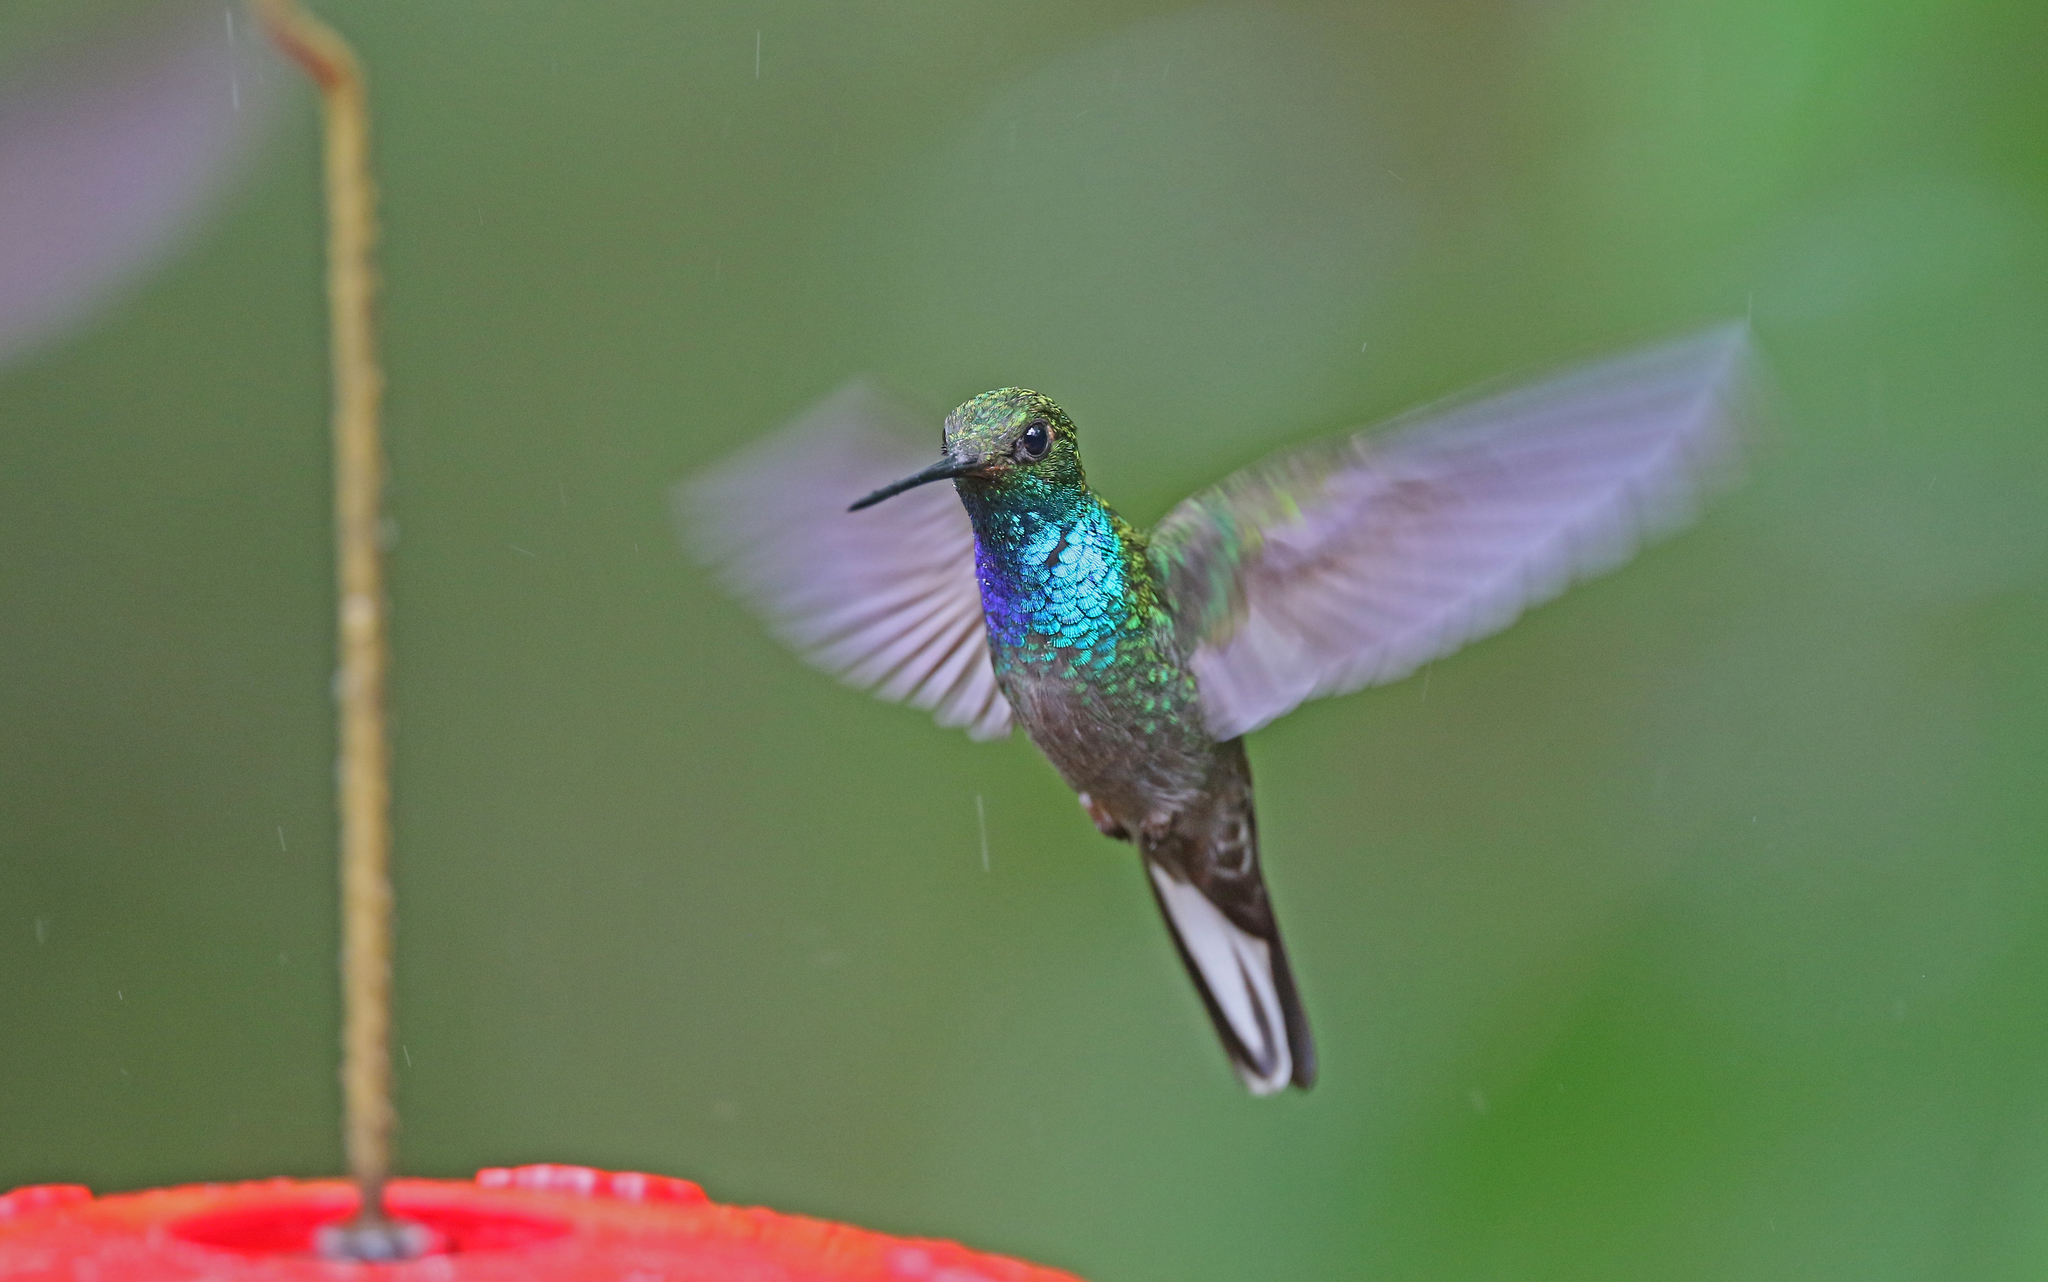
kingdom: Animalia
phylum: Chordata
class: Aves
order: Apodiformes
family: Trochilidae
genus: Urochroa
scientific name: Urochroa leucura
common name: Green-backed hillstar
